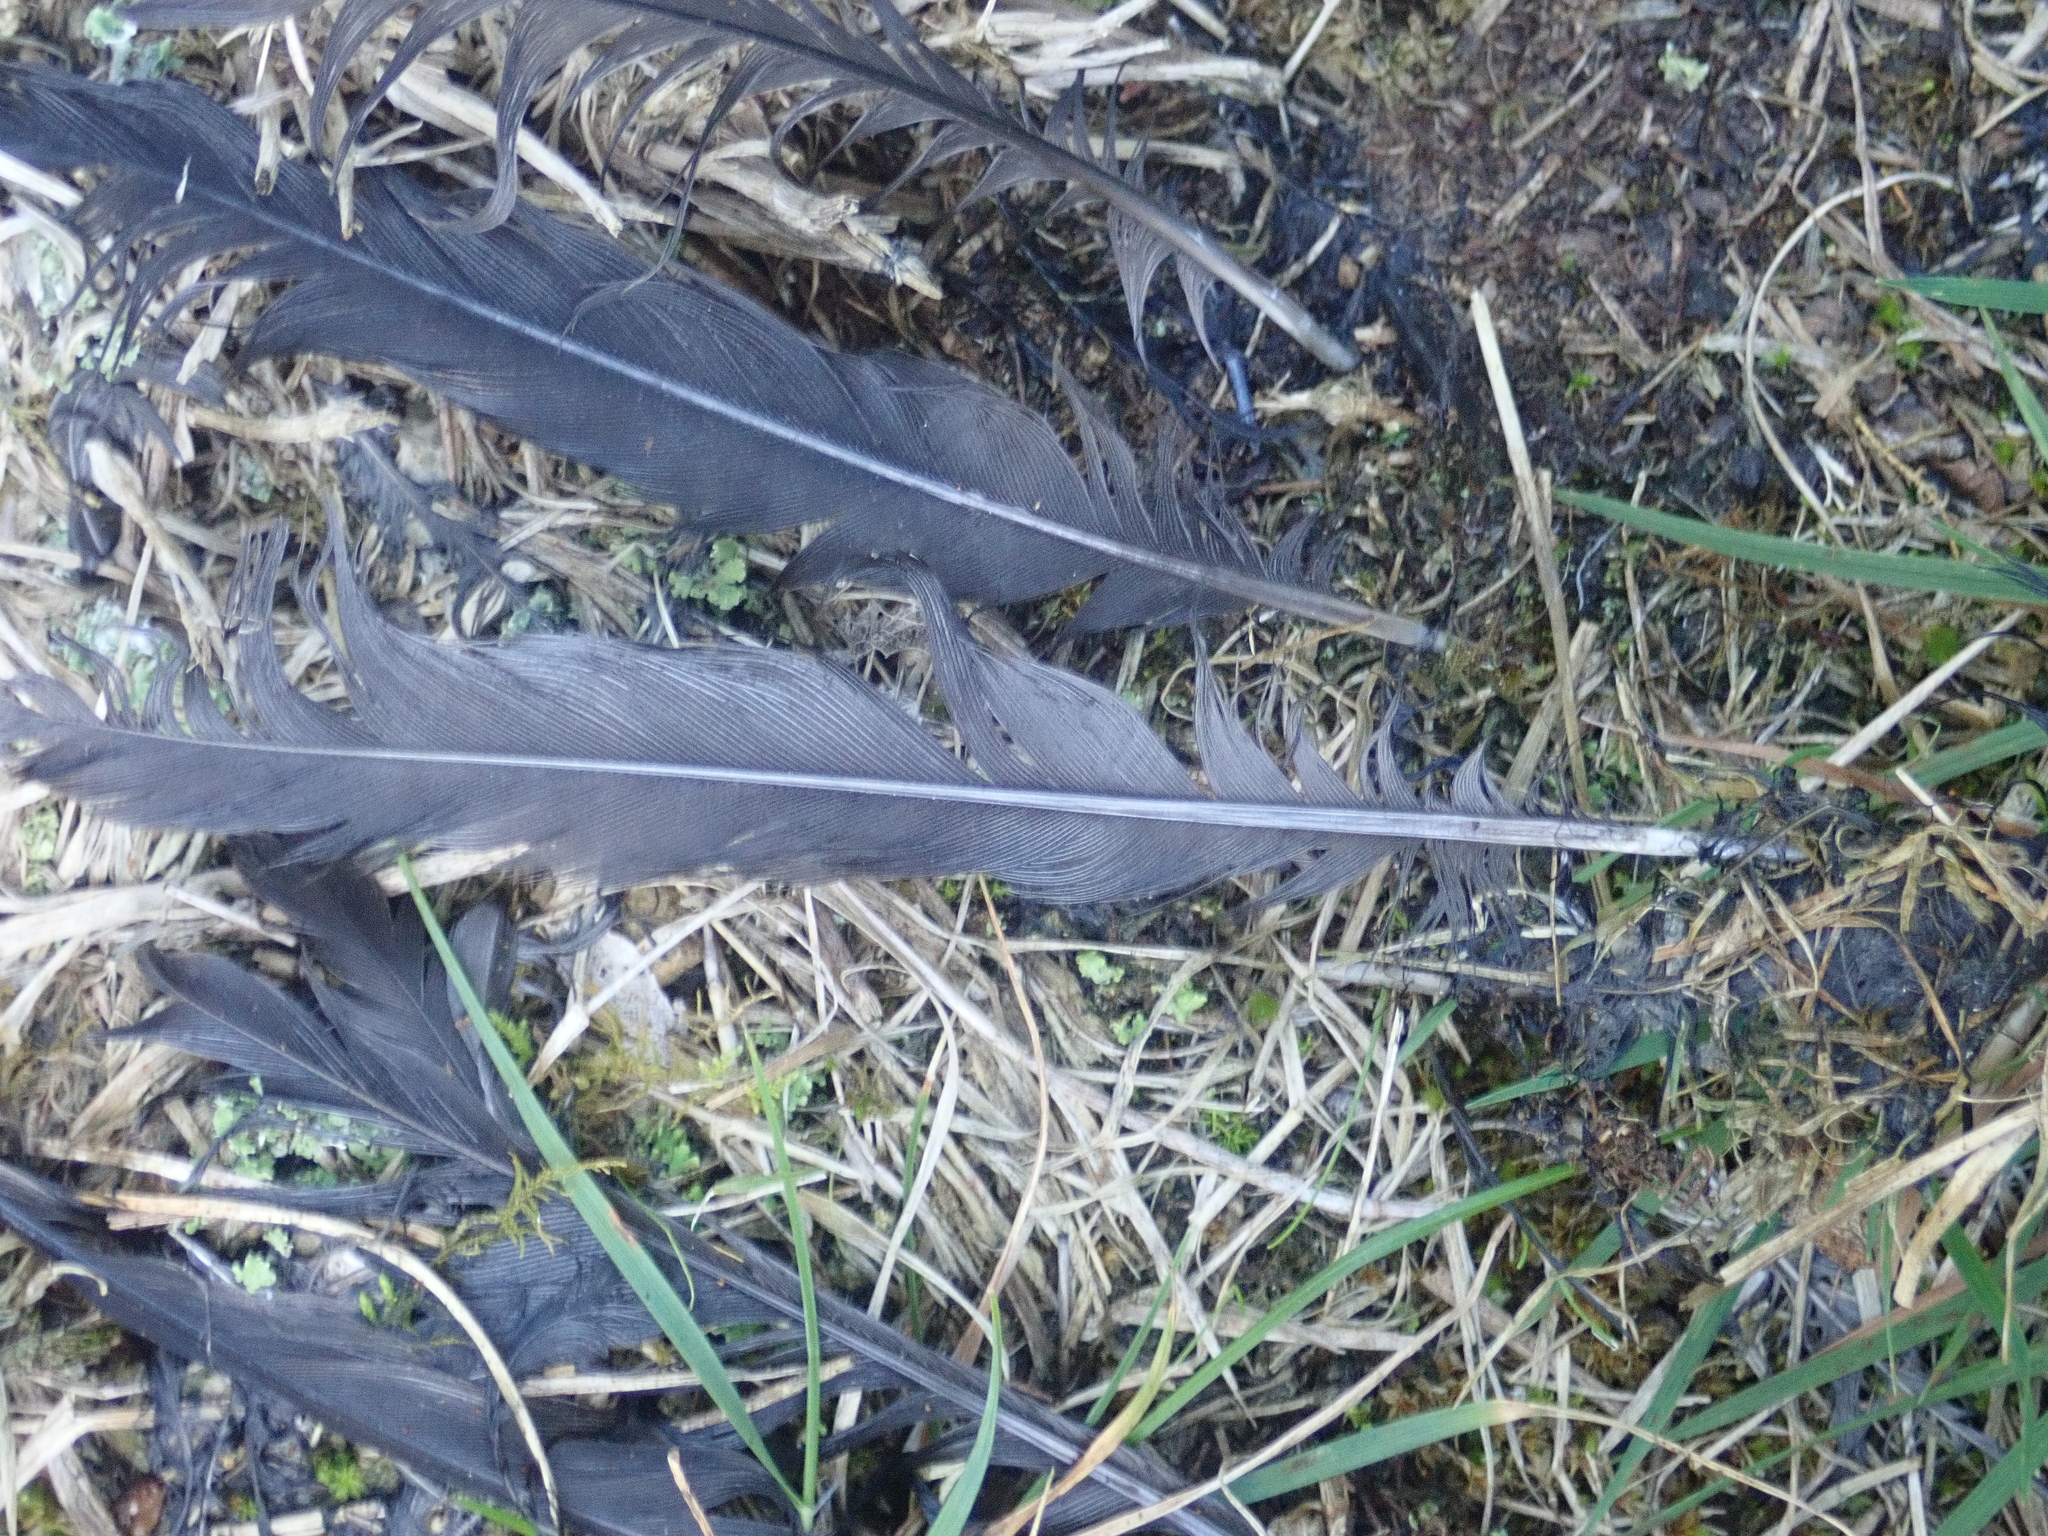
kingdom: Animalia
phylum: Chordata
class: Aves
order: Passeriformes
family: Turdidae
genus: Turdus
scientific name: Turdus merula
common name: Common blackbird
